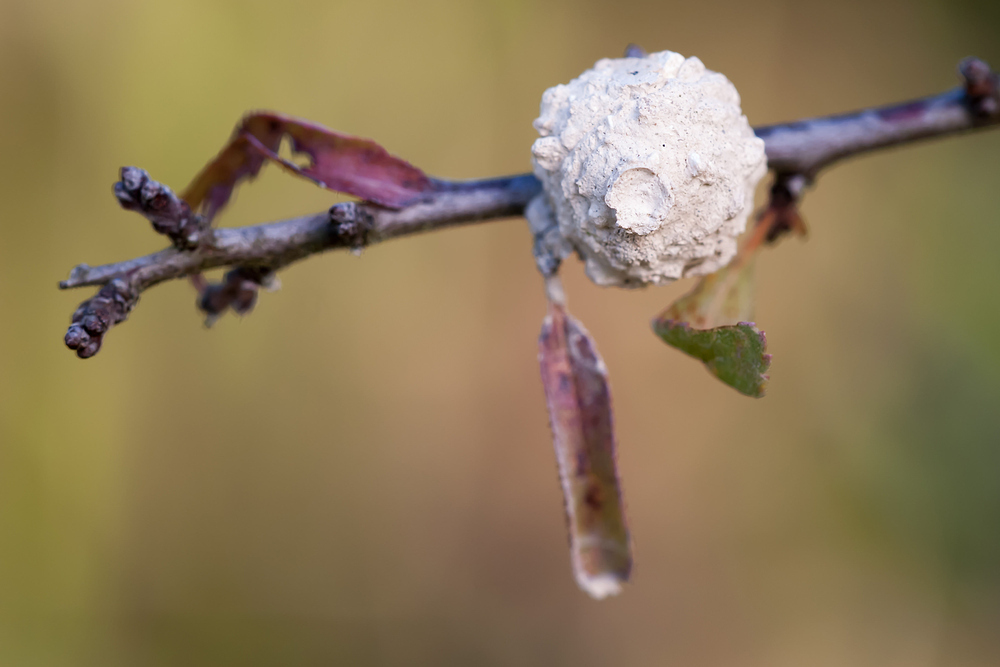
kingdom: Animalia
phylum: Arthropoda
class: Insecta
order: Hymenoptera
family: Vespidae
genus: Eumenes
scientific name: Eumenes
